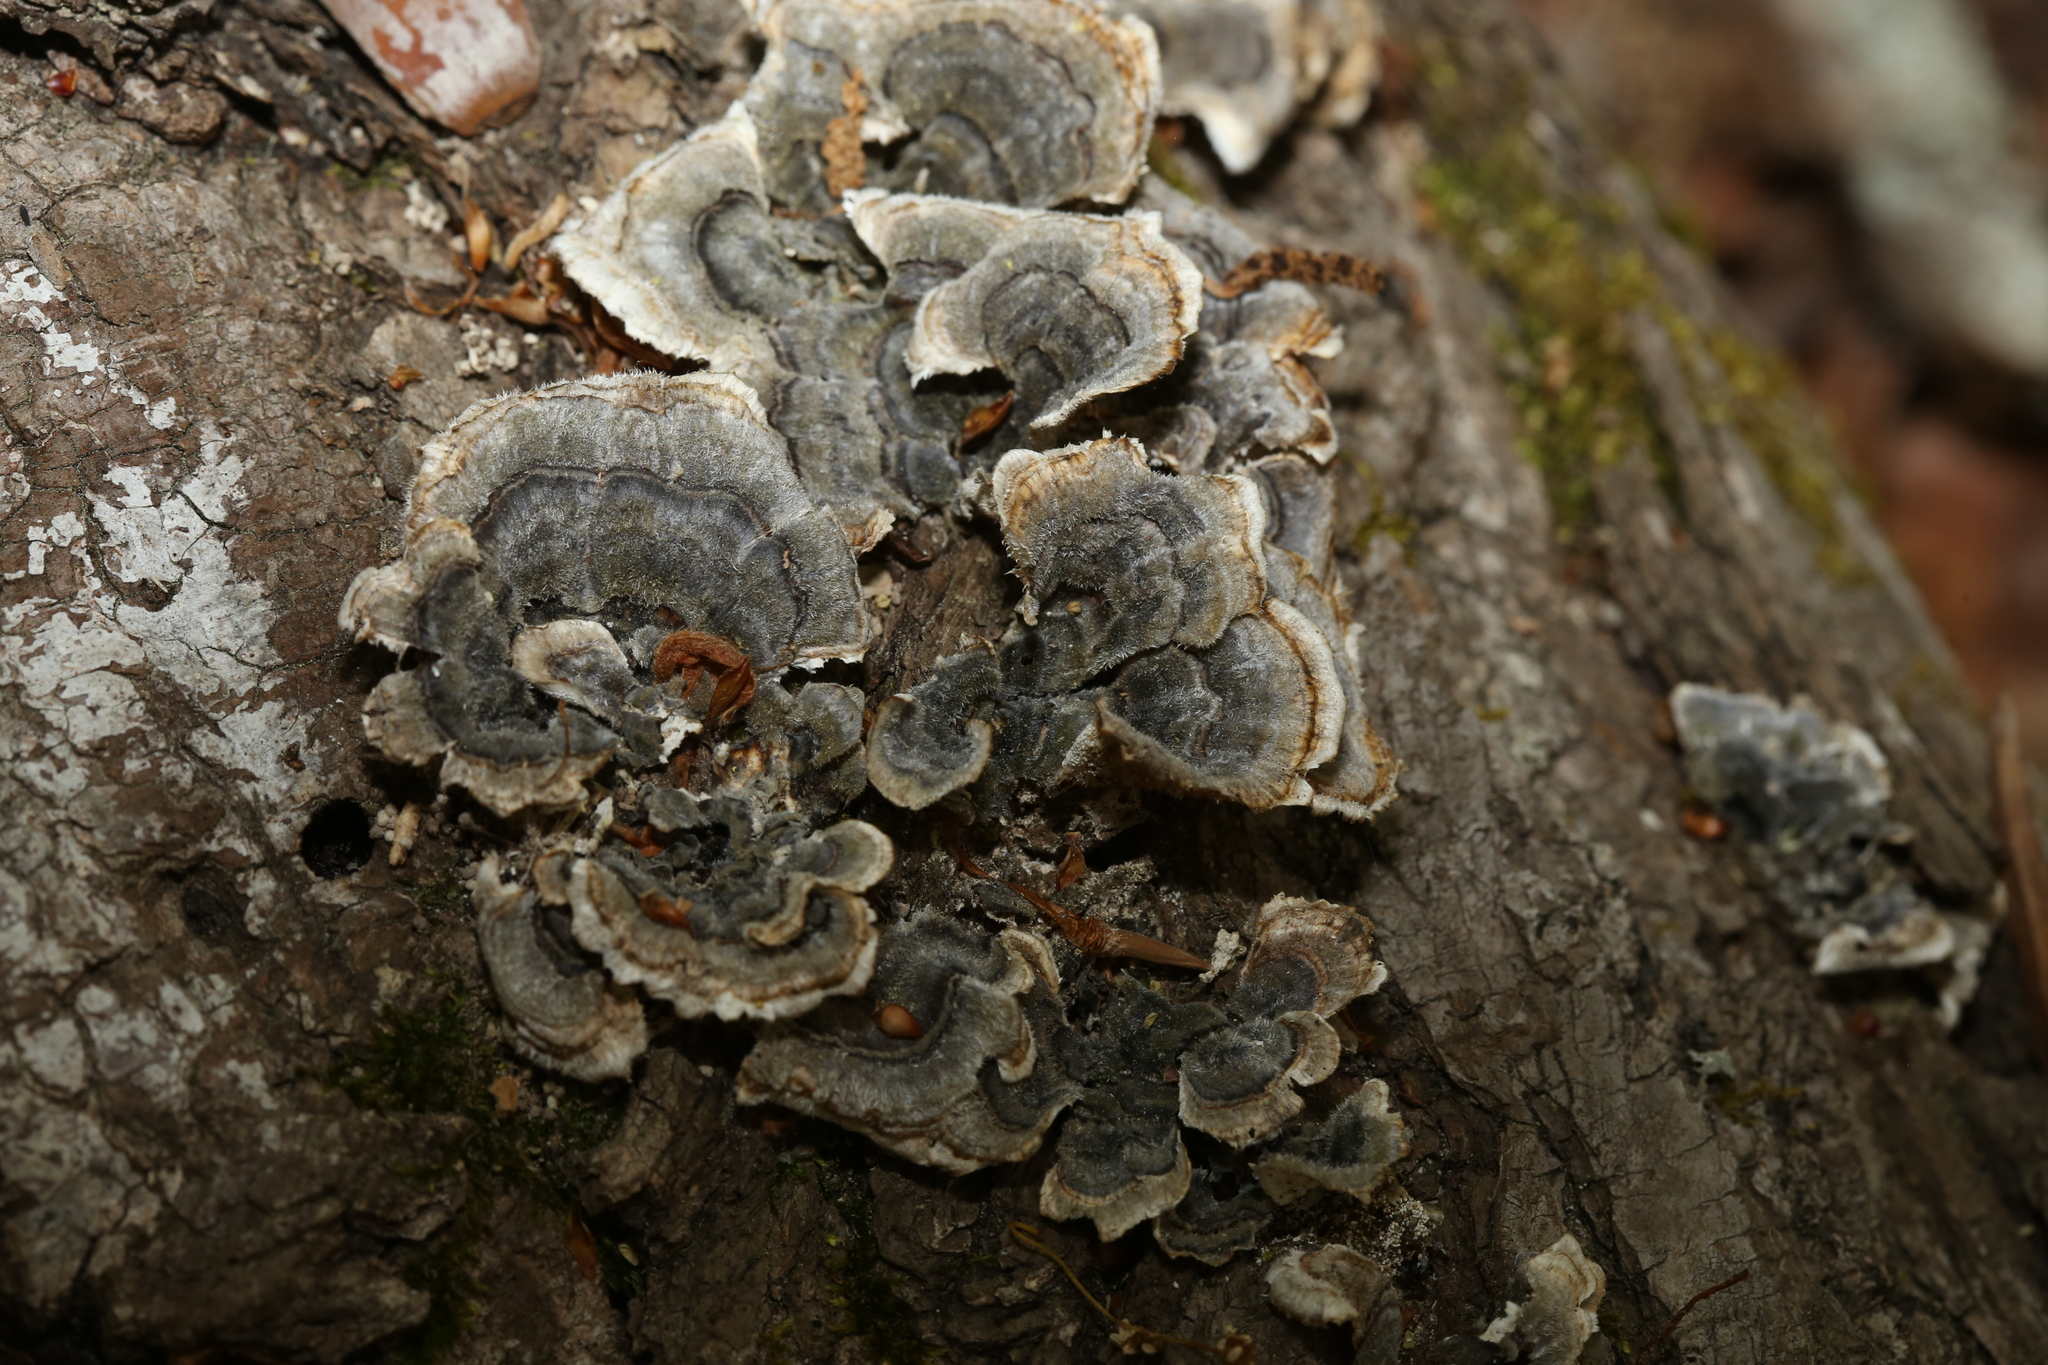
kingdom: Fungi
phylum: Basidiomycota
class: Agaricomycetes
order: Polyporales
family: Polyporaceae
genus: Trametes
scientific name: Trametes versicolor
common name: Turkeytail
